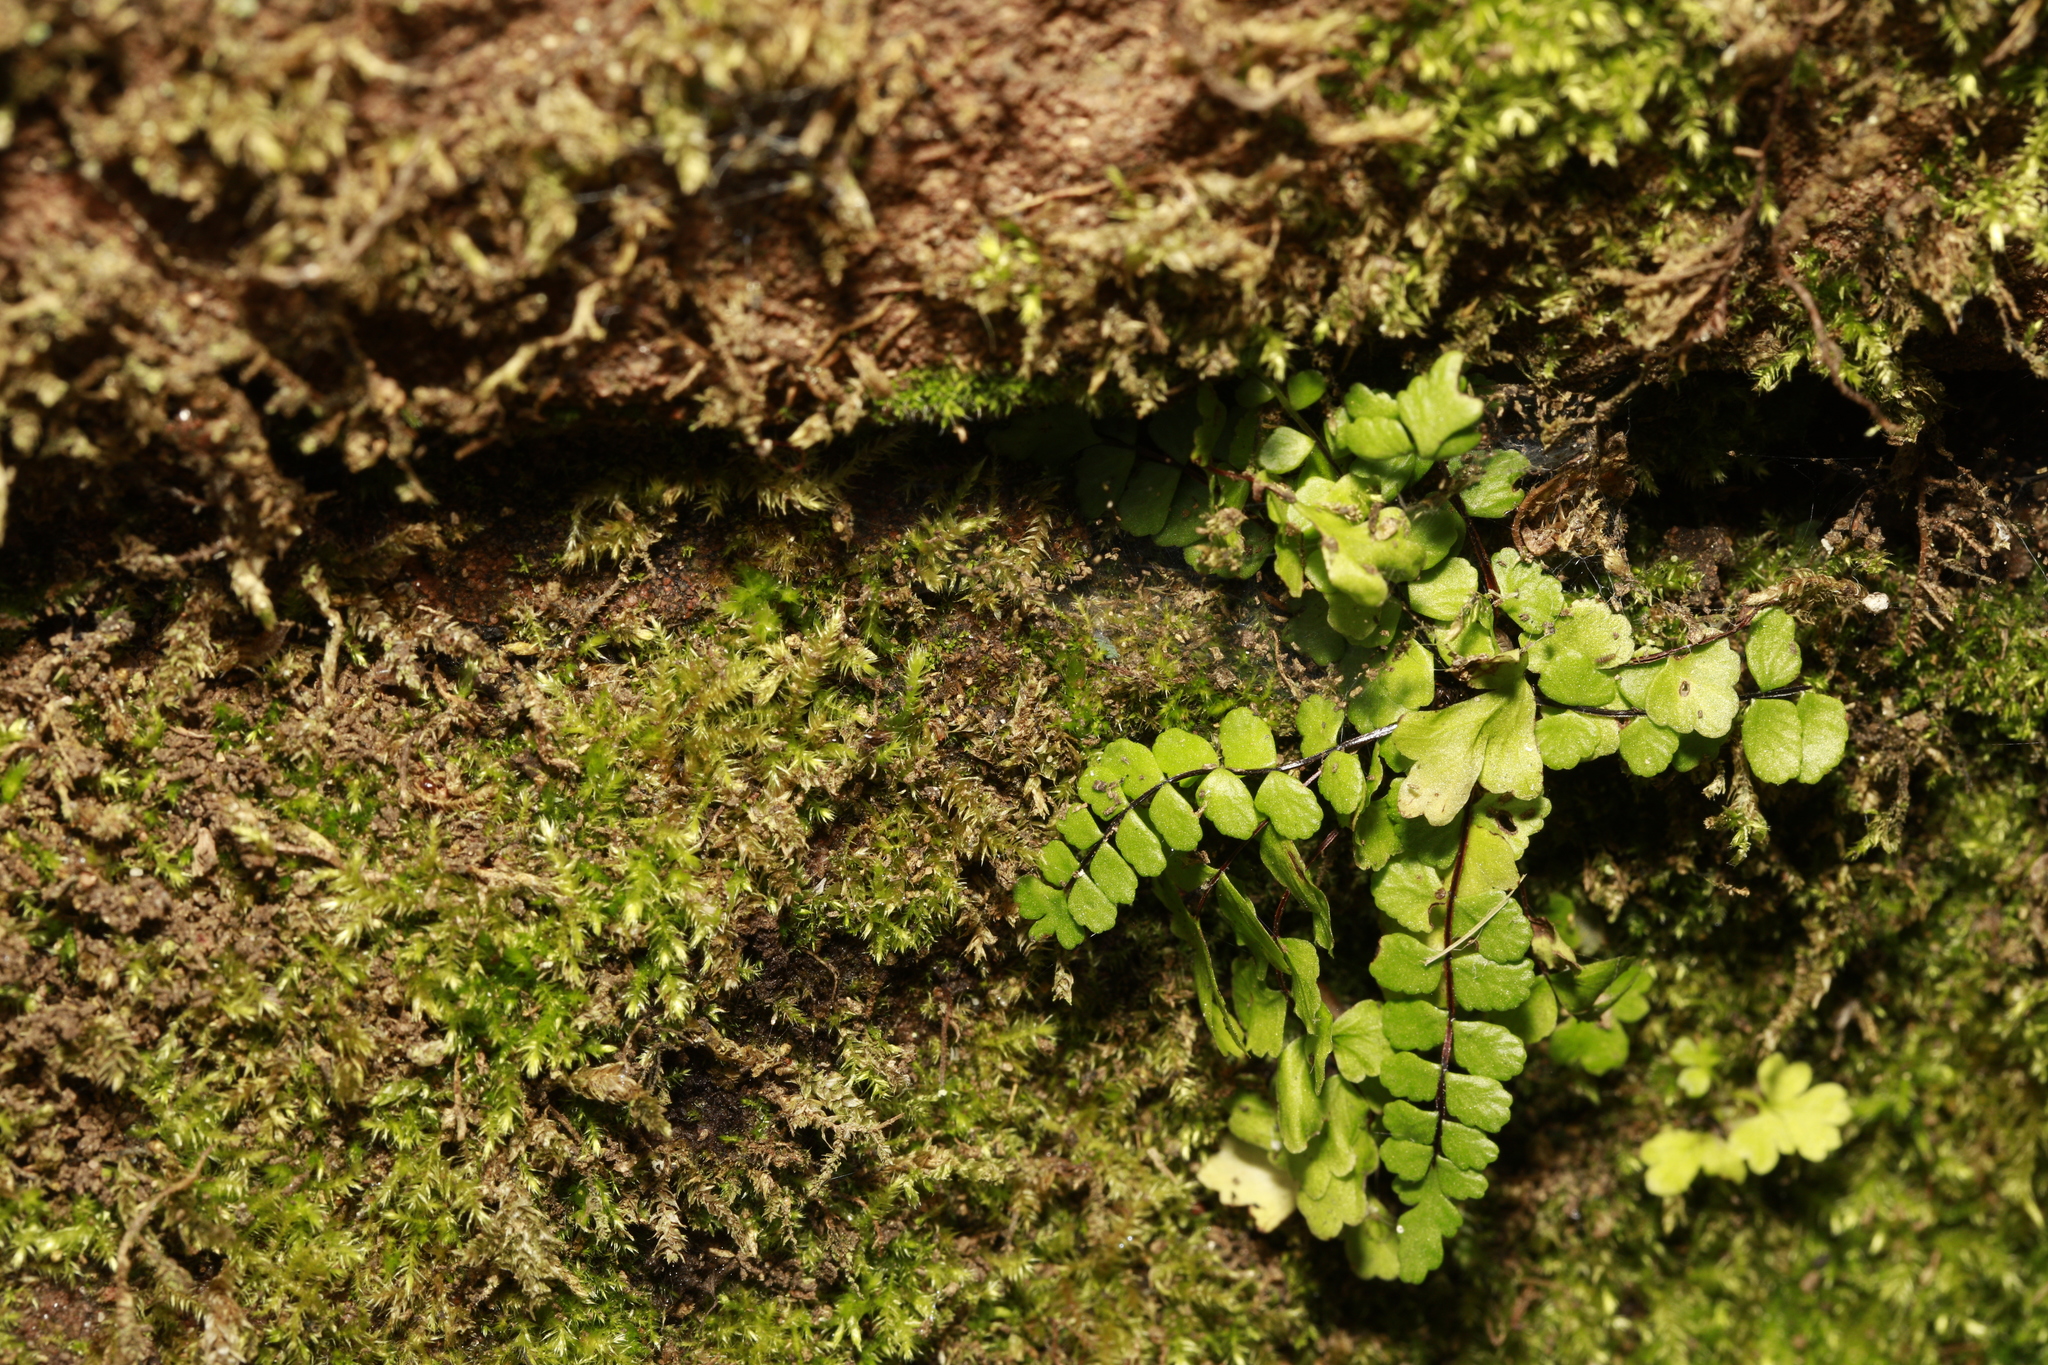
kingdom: Plantae
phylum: Tracheophyta
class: Polypodiopsida
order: Polypodiales
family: Aspleniaceae
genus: Asplenium
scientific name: Asplenium trichomanes
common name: Maidenhair spleenwort
